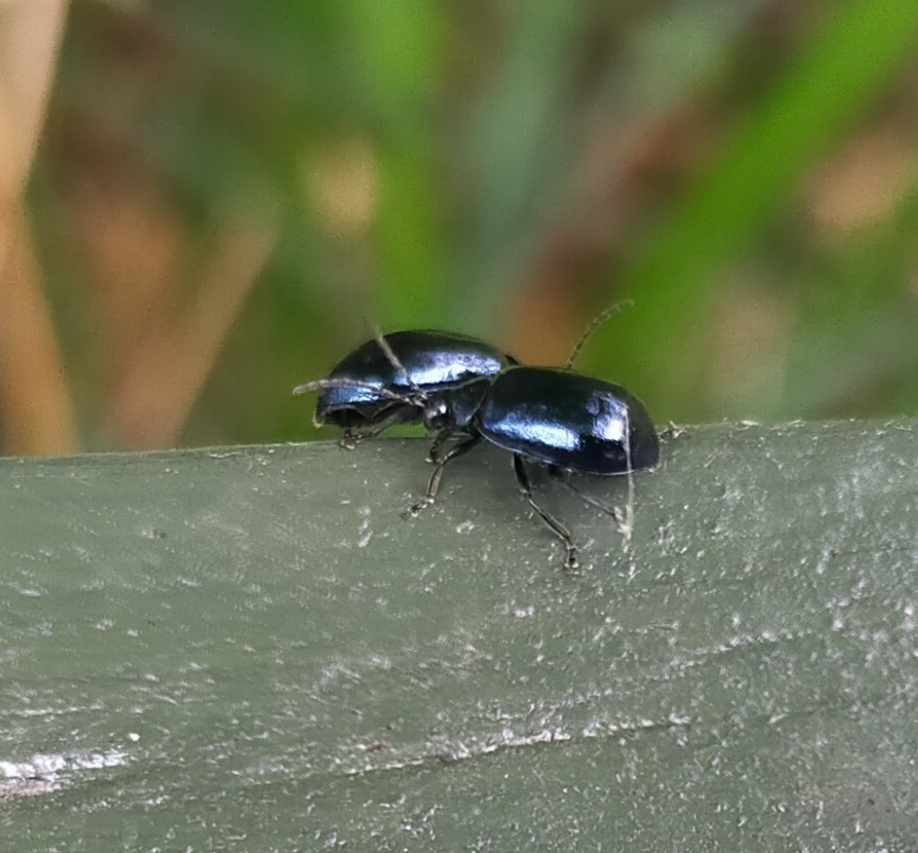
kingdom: Animalia
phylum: Arthropoda
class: Insecta
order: Coleoptera
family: Chrysomelidae
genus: Agelastica
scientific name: Agelastica alni
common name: Alder leaf beetle
